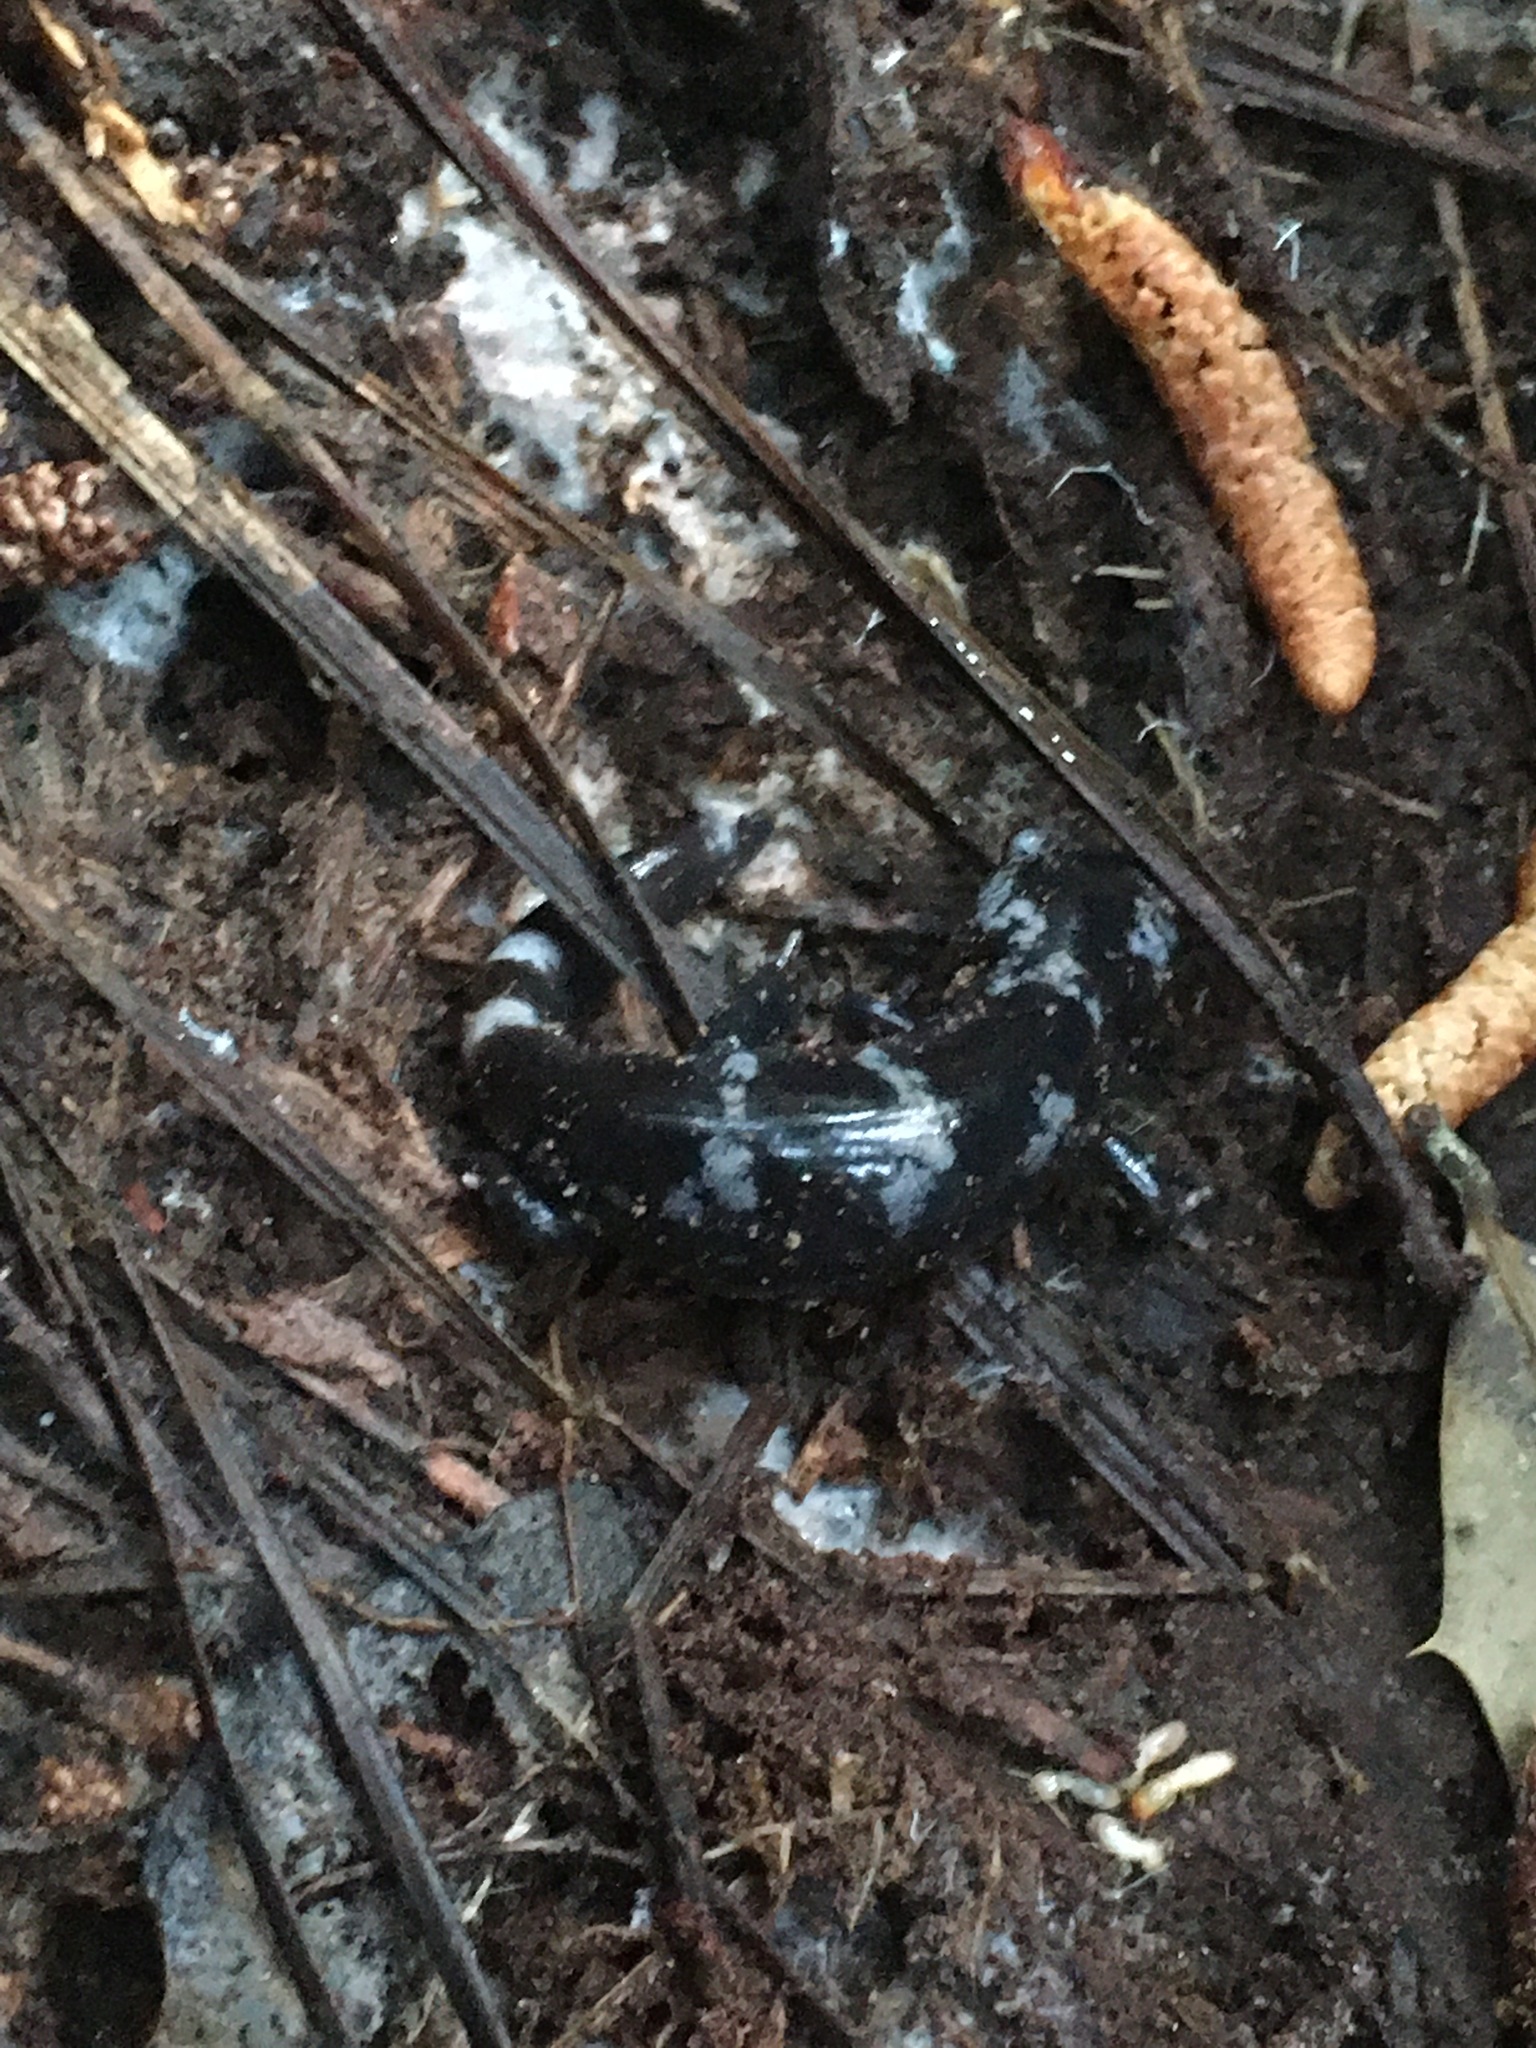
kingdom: Animalia
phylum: Chordata
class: Amphibia
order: Caudata
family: Ambystomatidae
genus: Ambystoma
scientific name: Ambystoma opacum
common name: Marbled salamander
